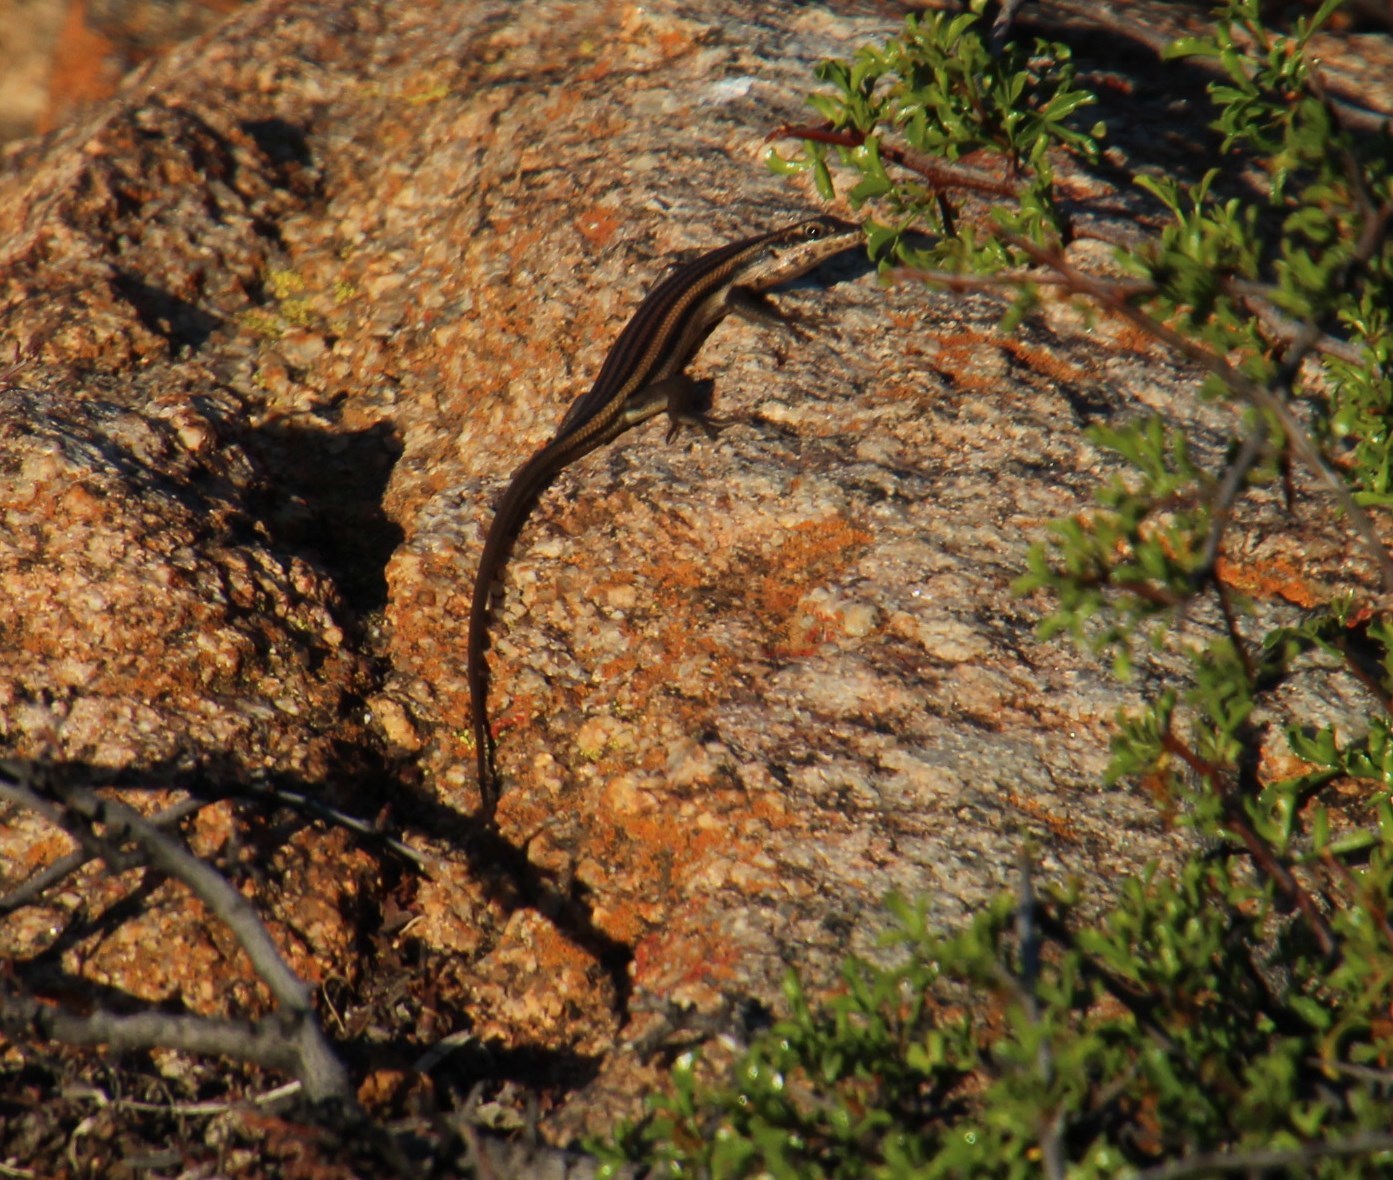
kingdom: Animalia
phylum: Chordata
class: Squamata
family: Scincidae
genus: Trachylepis
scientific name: Trachylepis sulcata
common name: Western rock skink
